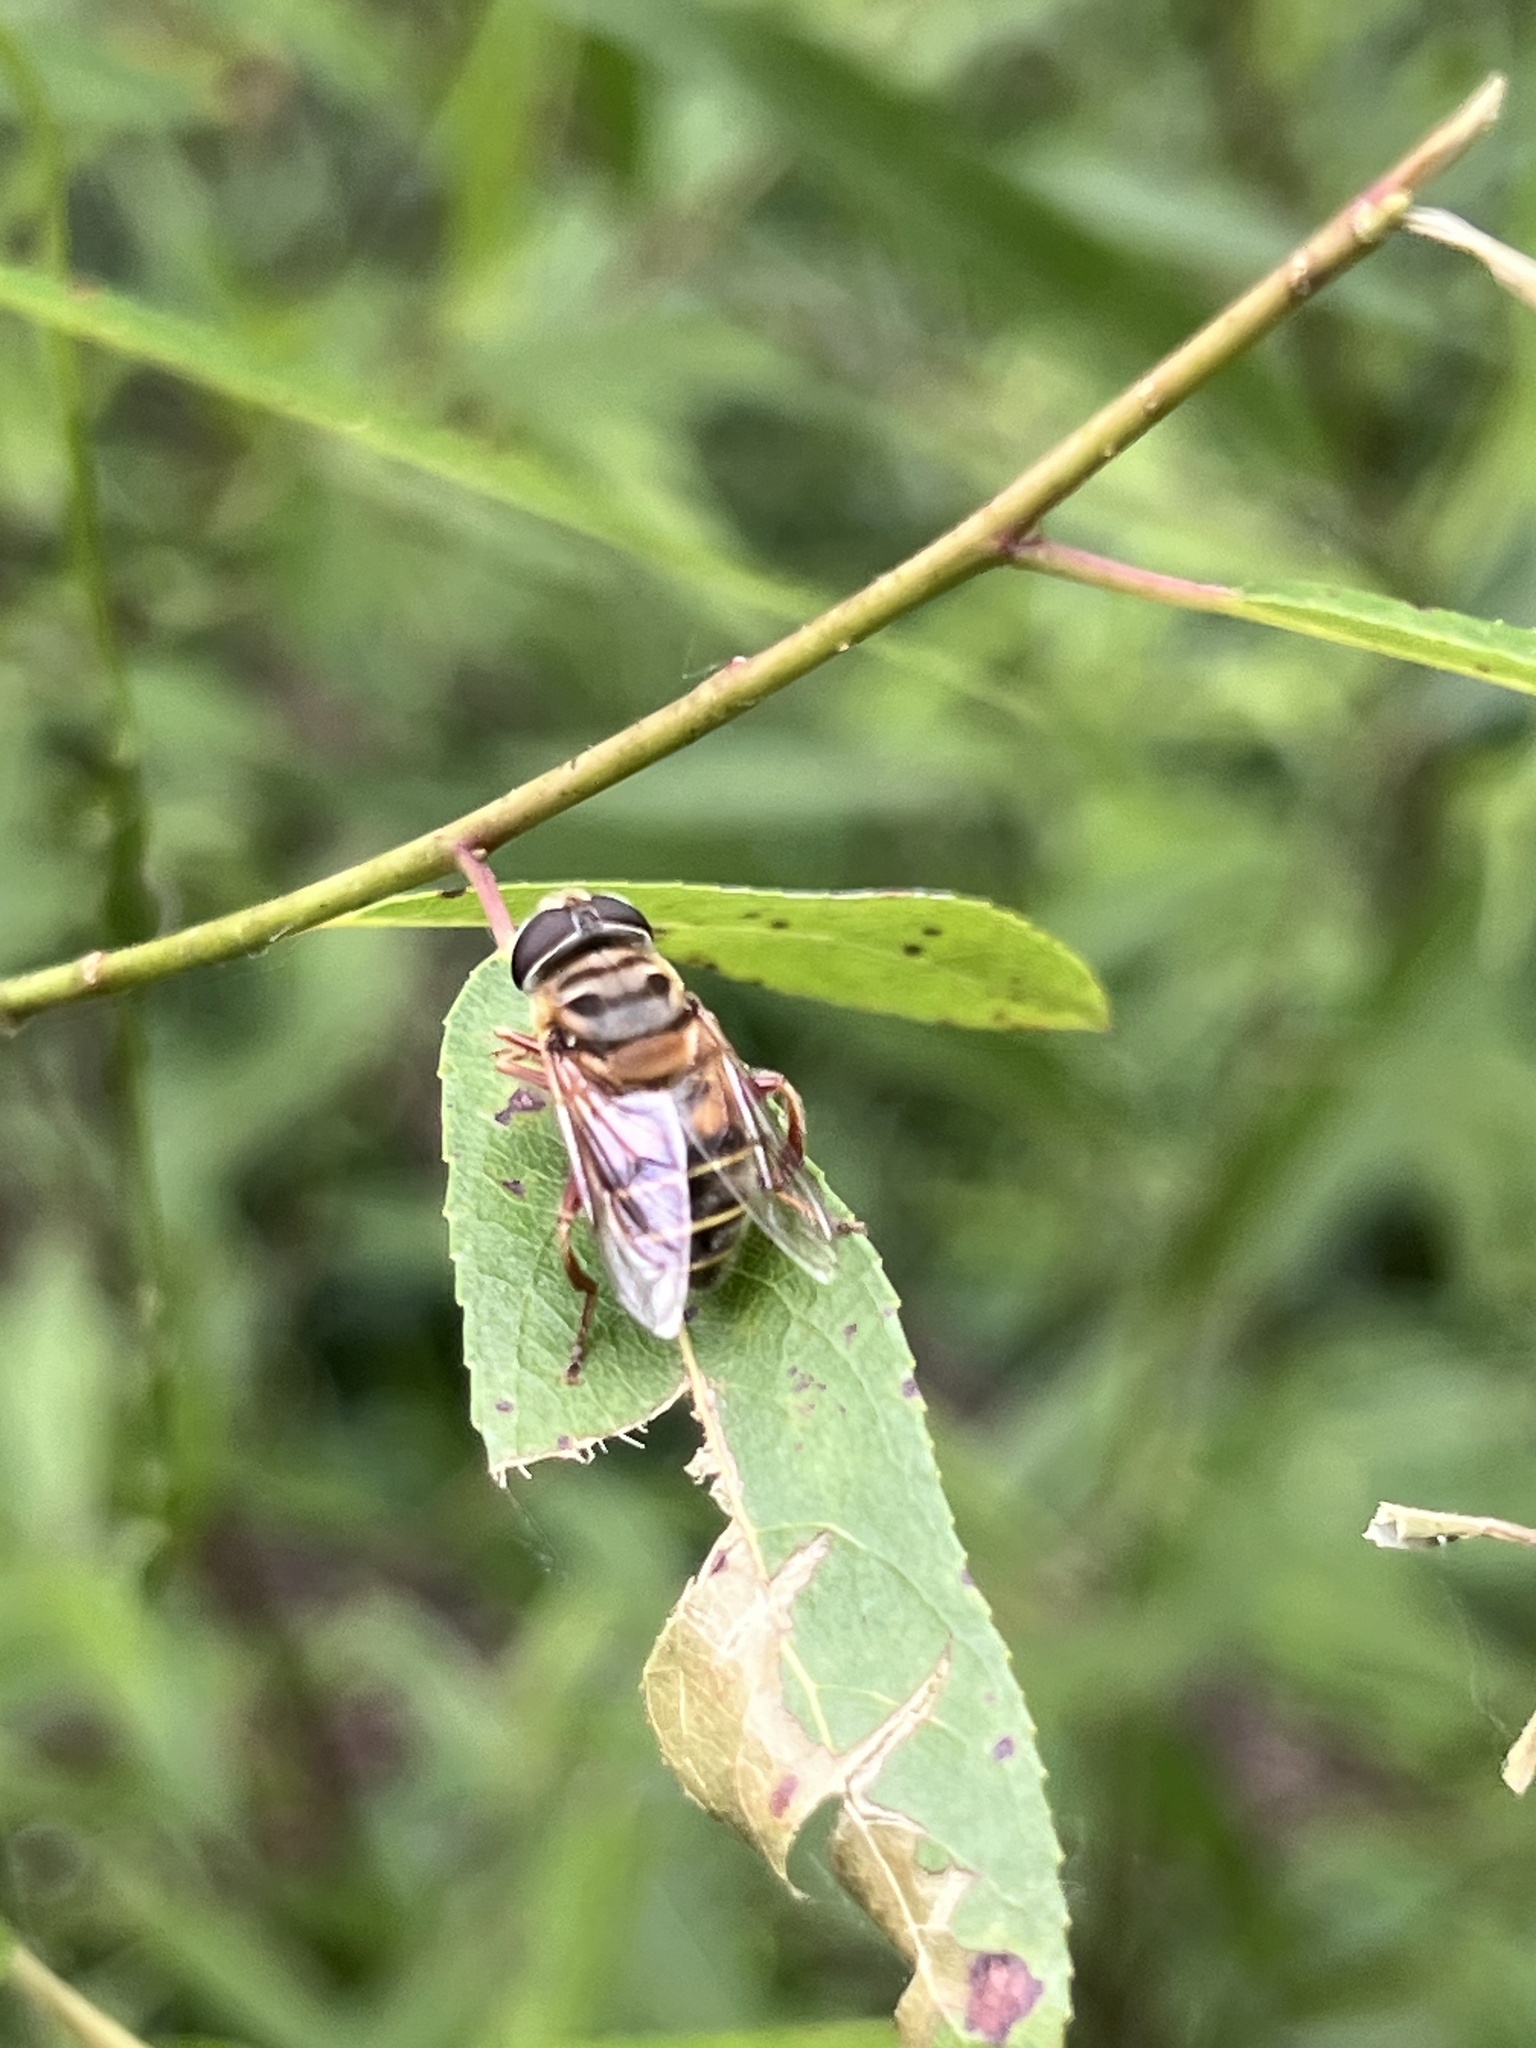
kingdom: Animalia
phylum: Arthropoda
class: Insecta
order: Diptera
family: Syrphidae
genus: Palpada
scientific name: Palpada vinetorum
